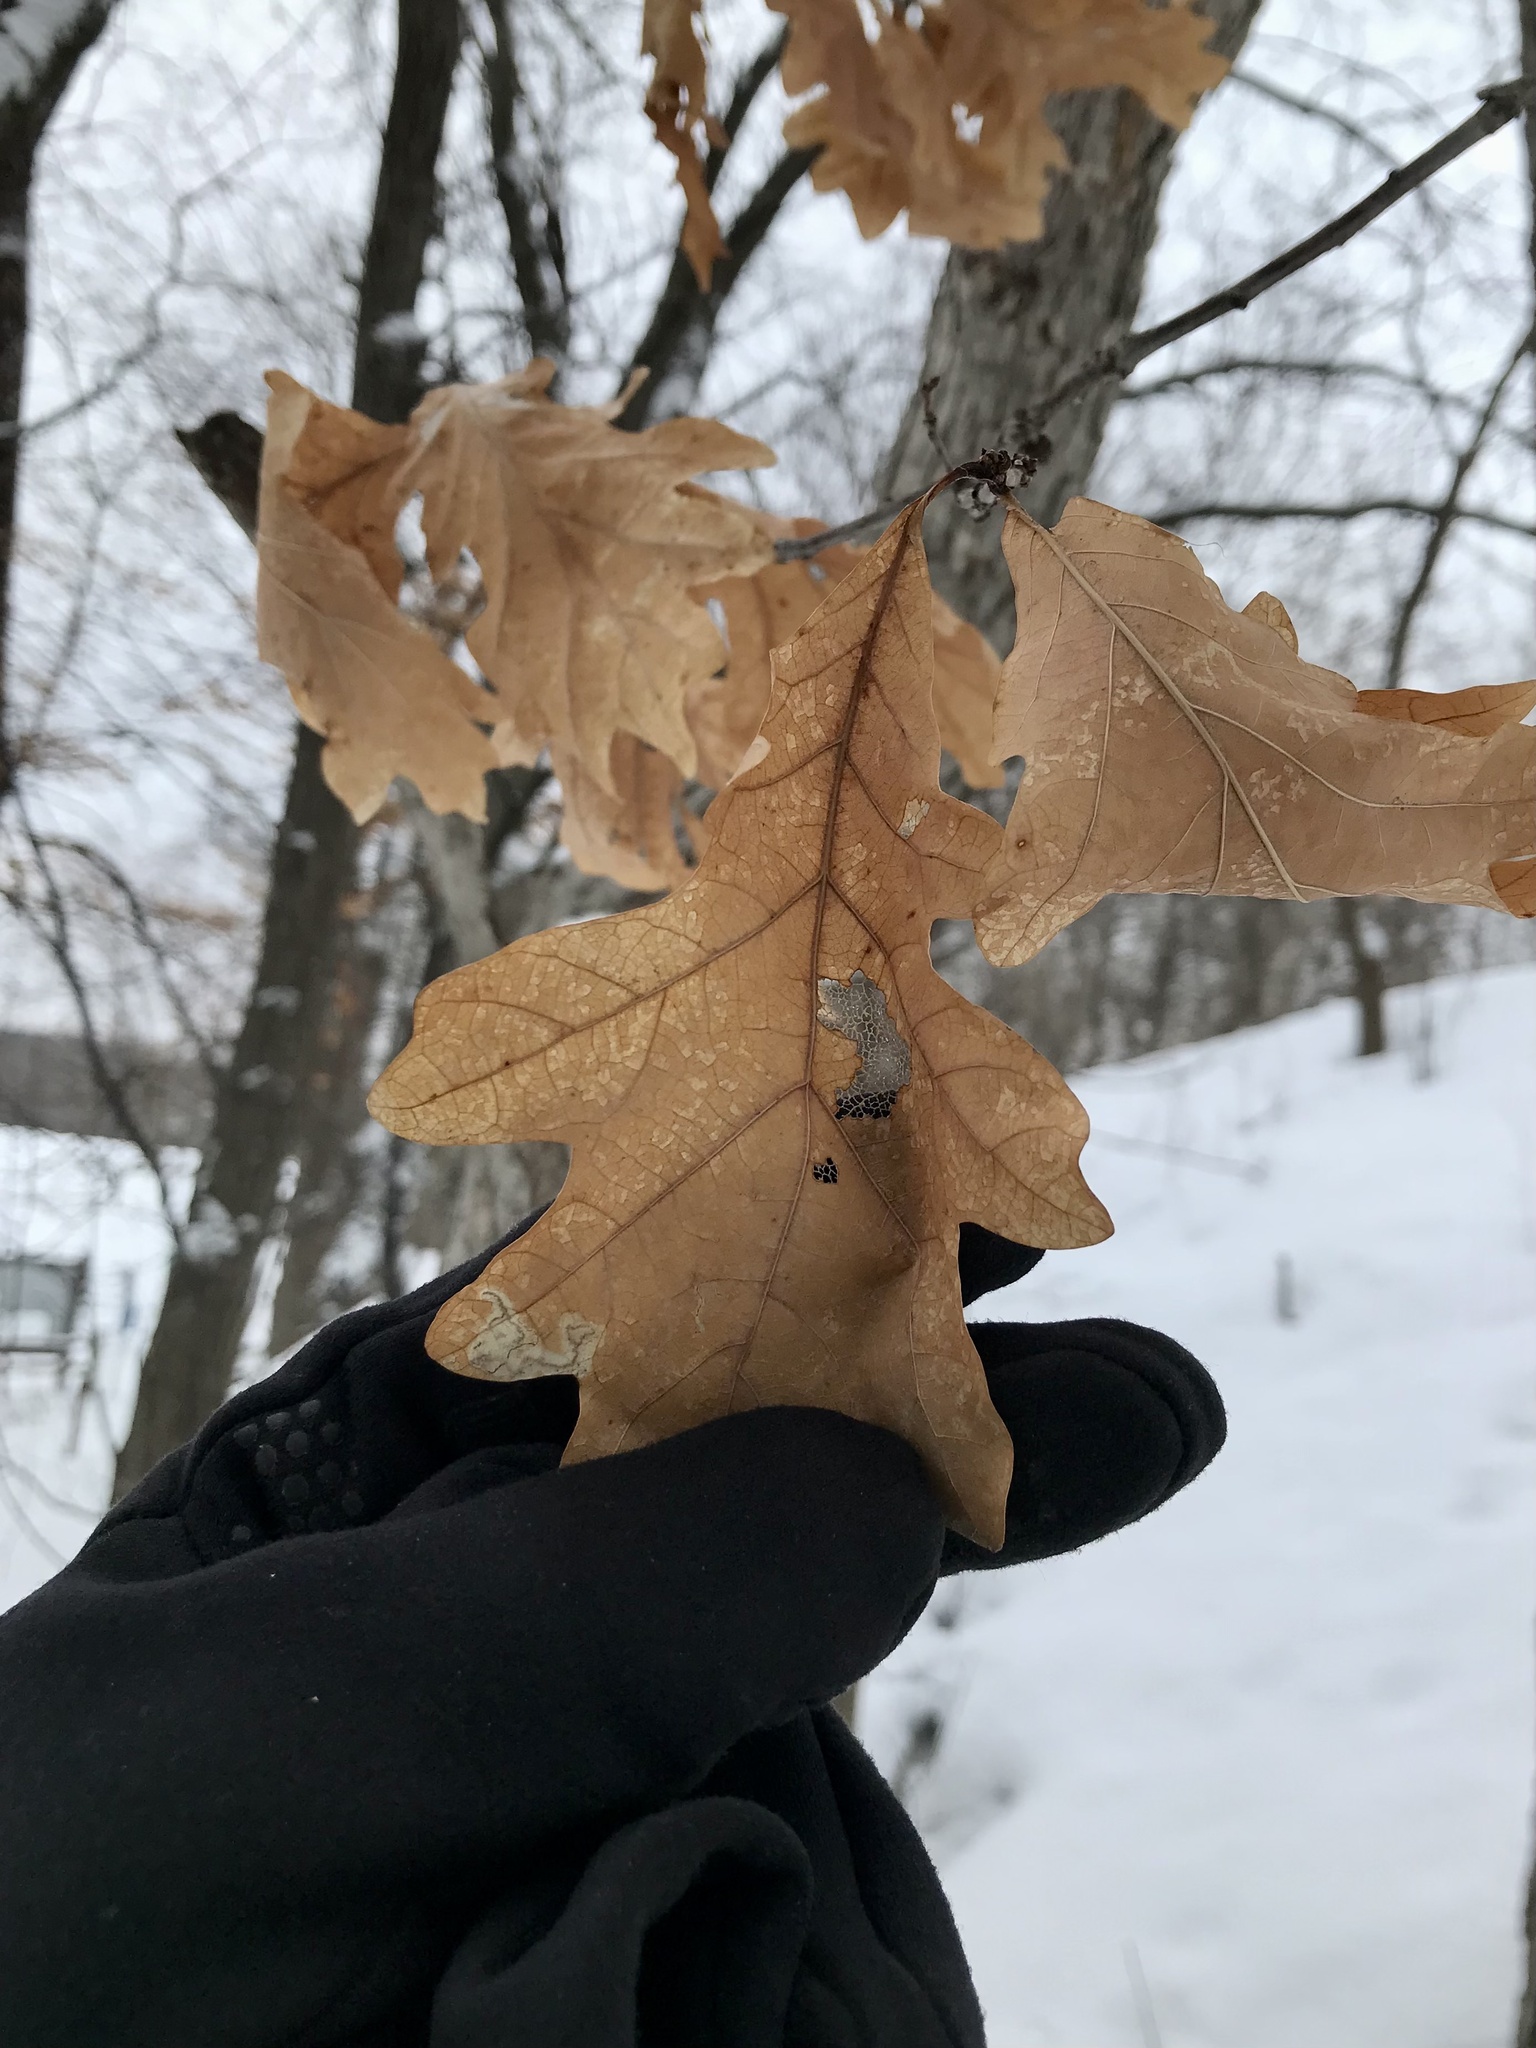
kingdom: Plantae
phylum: Tracheophyta
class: Magnoliopsida
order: Fagales
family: Fagaceae
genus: Quercus
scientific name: Quercus alba
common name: White oak
